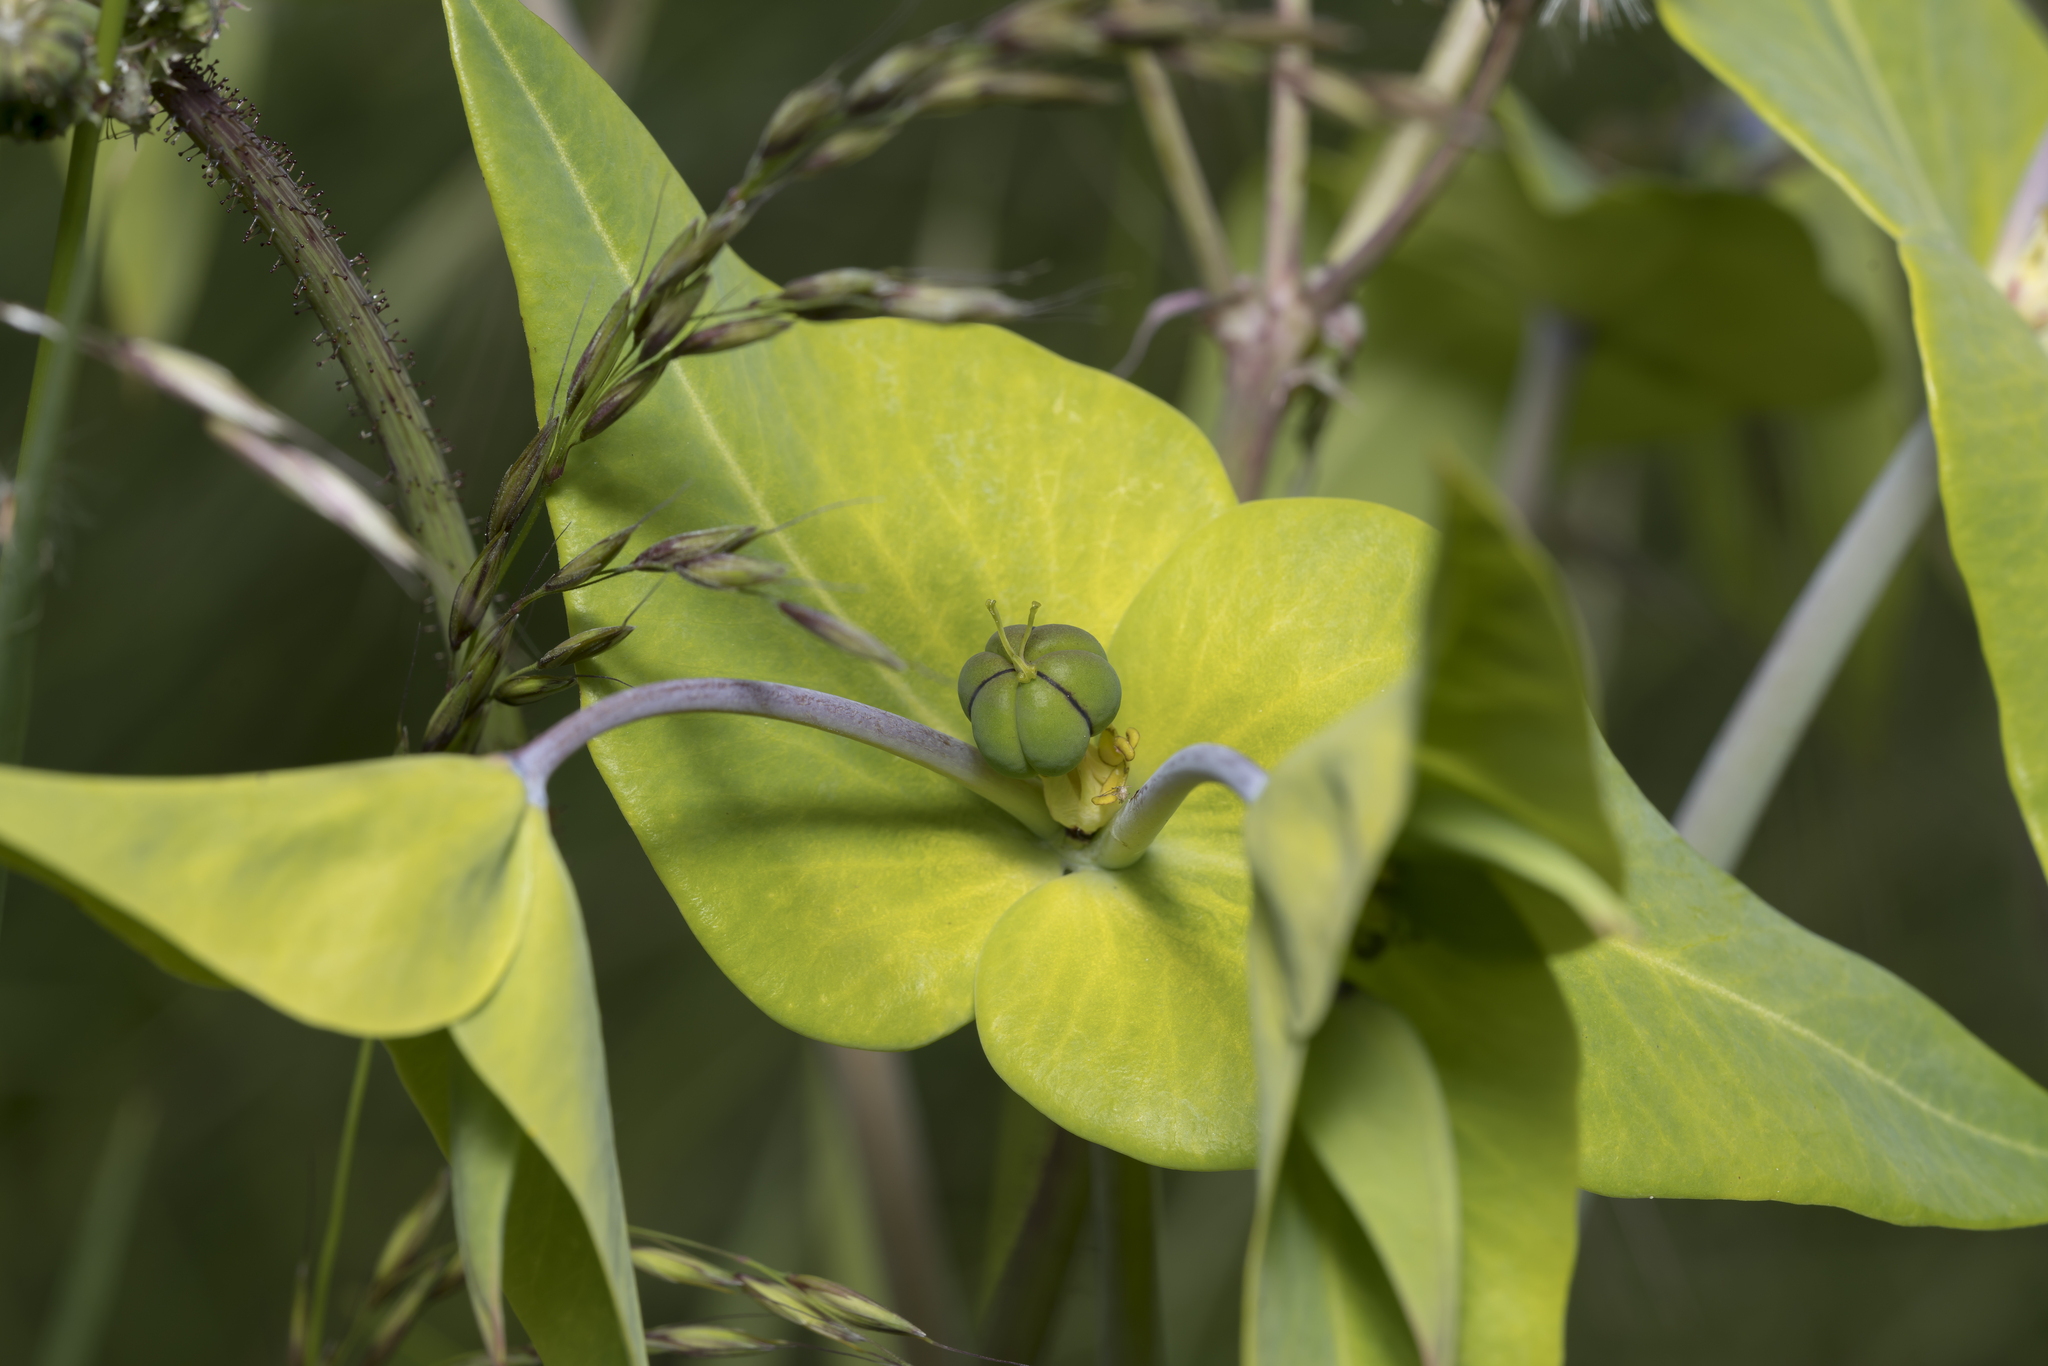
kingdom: Plantae
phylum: Tracheophyta
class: Magnoliopsida
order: Malpighiales
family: Euphorbiaceae
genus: Euphorbia
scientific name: Euphorbia lathyris
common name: Caper spurge
